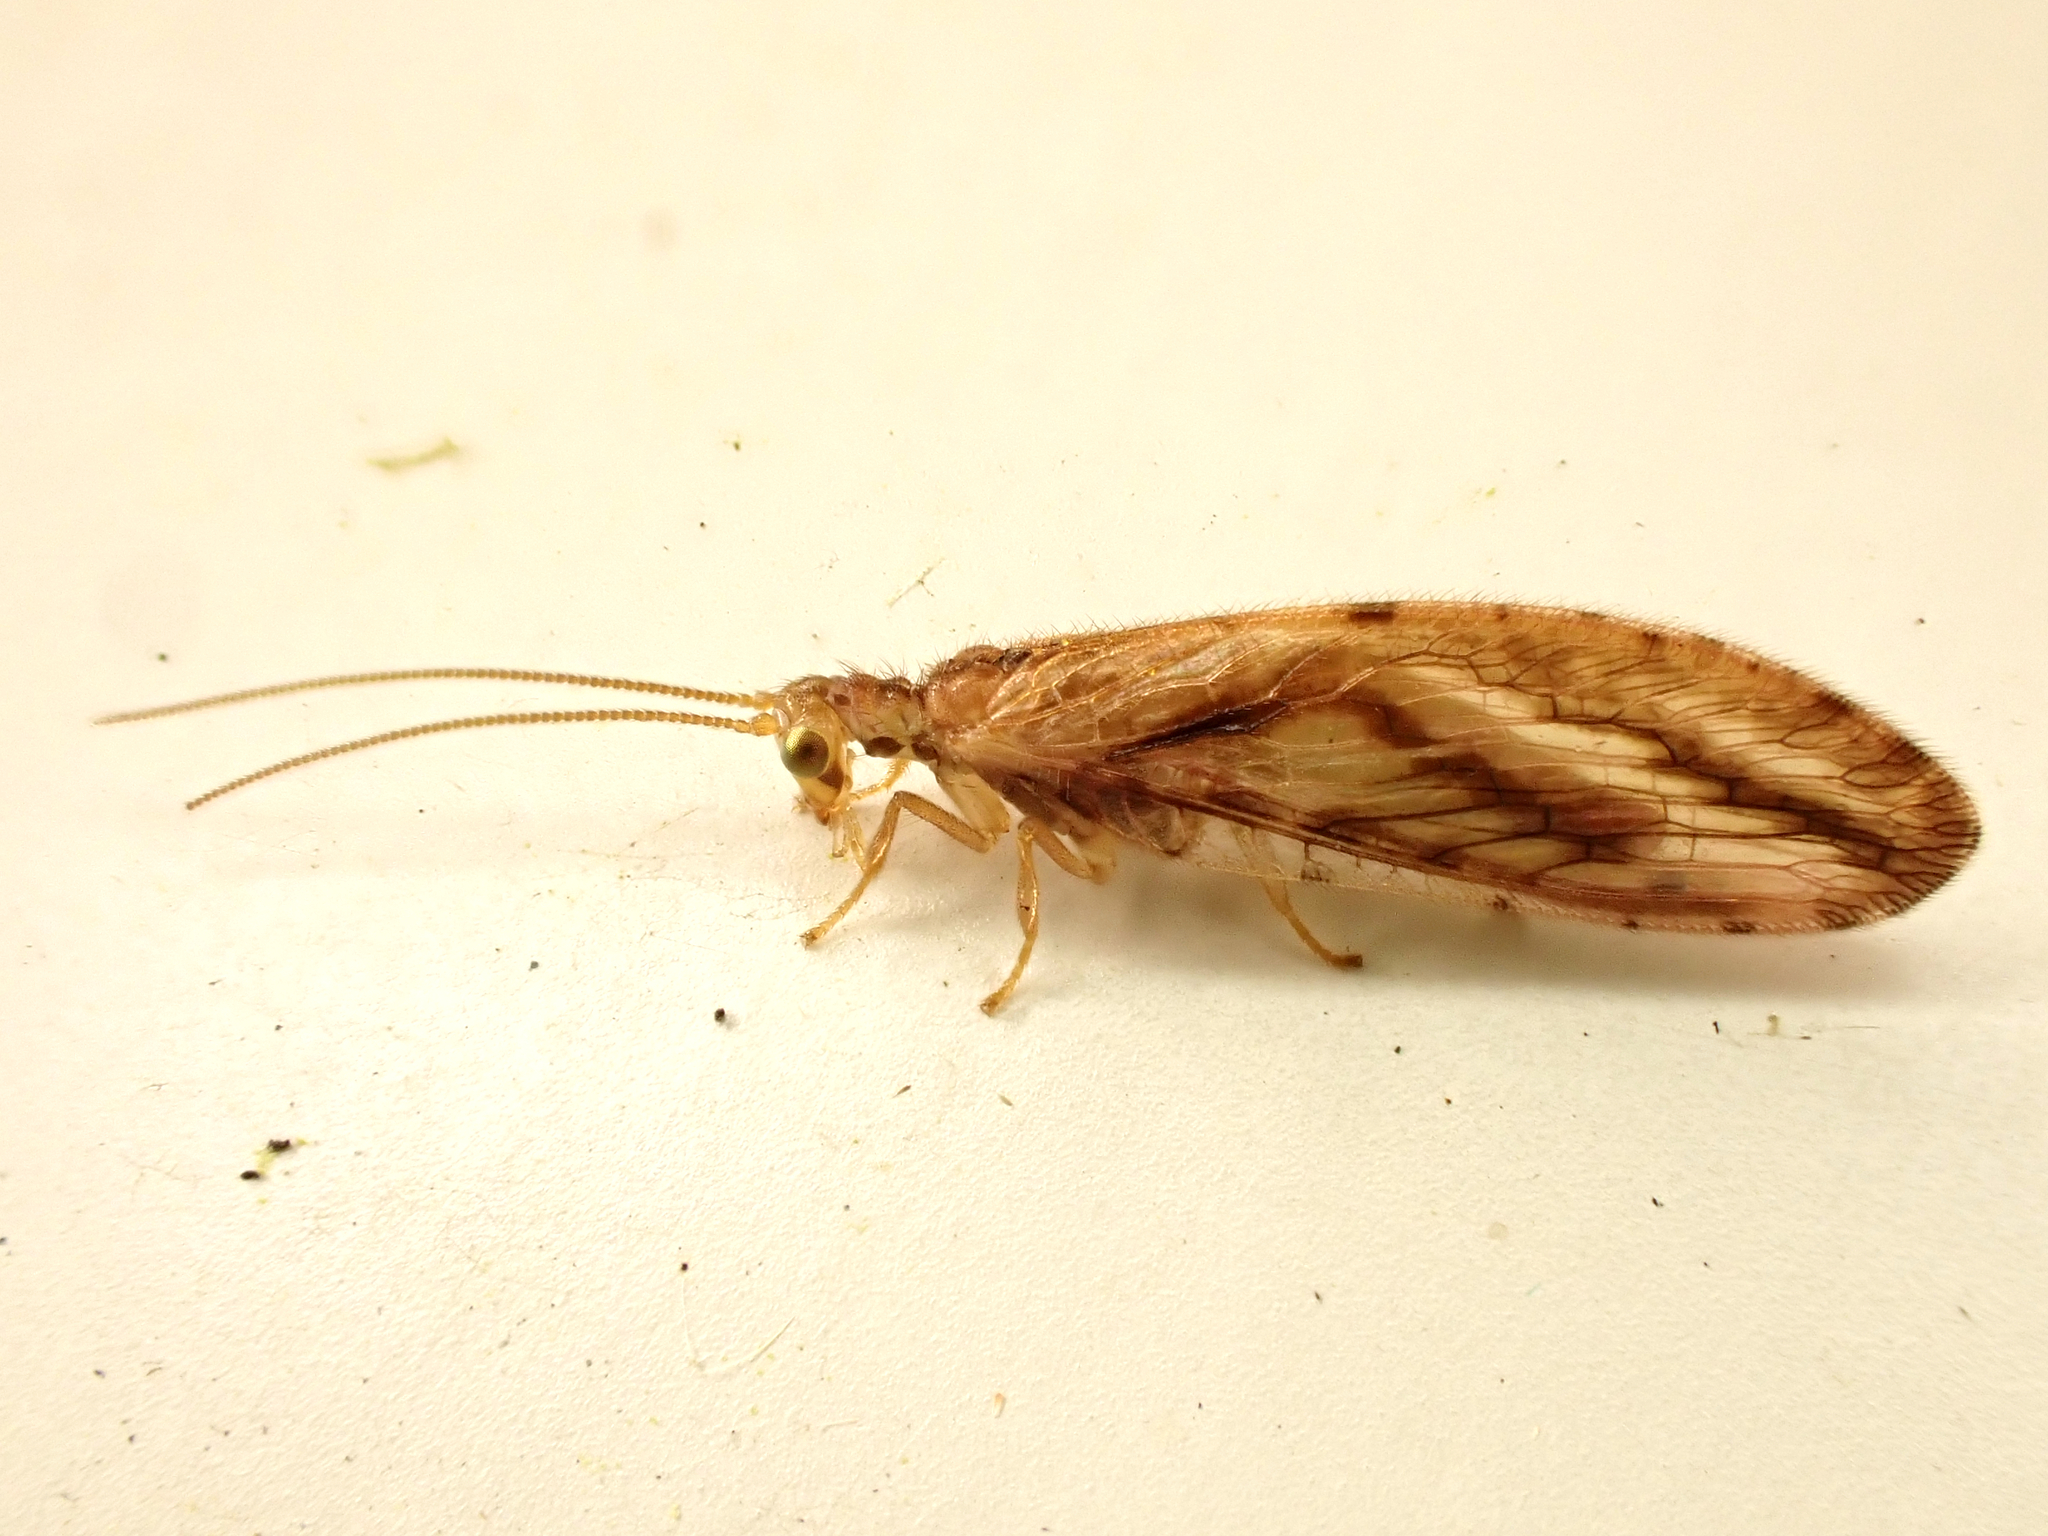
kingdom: Animalia
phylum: Arthropoda
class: Insecta
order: Neuroptera
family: Hemerobiidae
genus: Micromus
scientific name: Micromus bifasciatus
